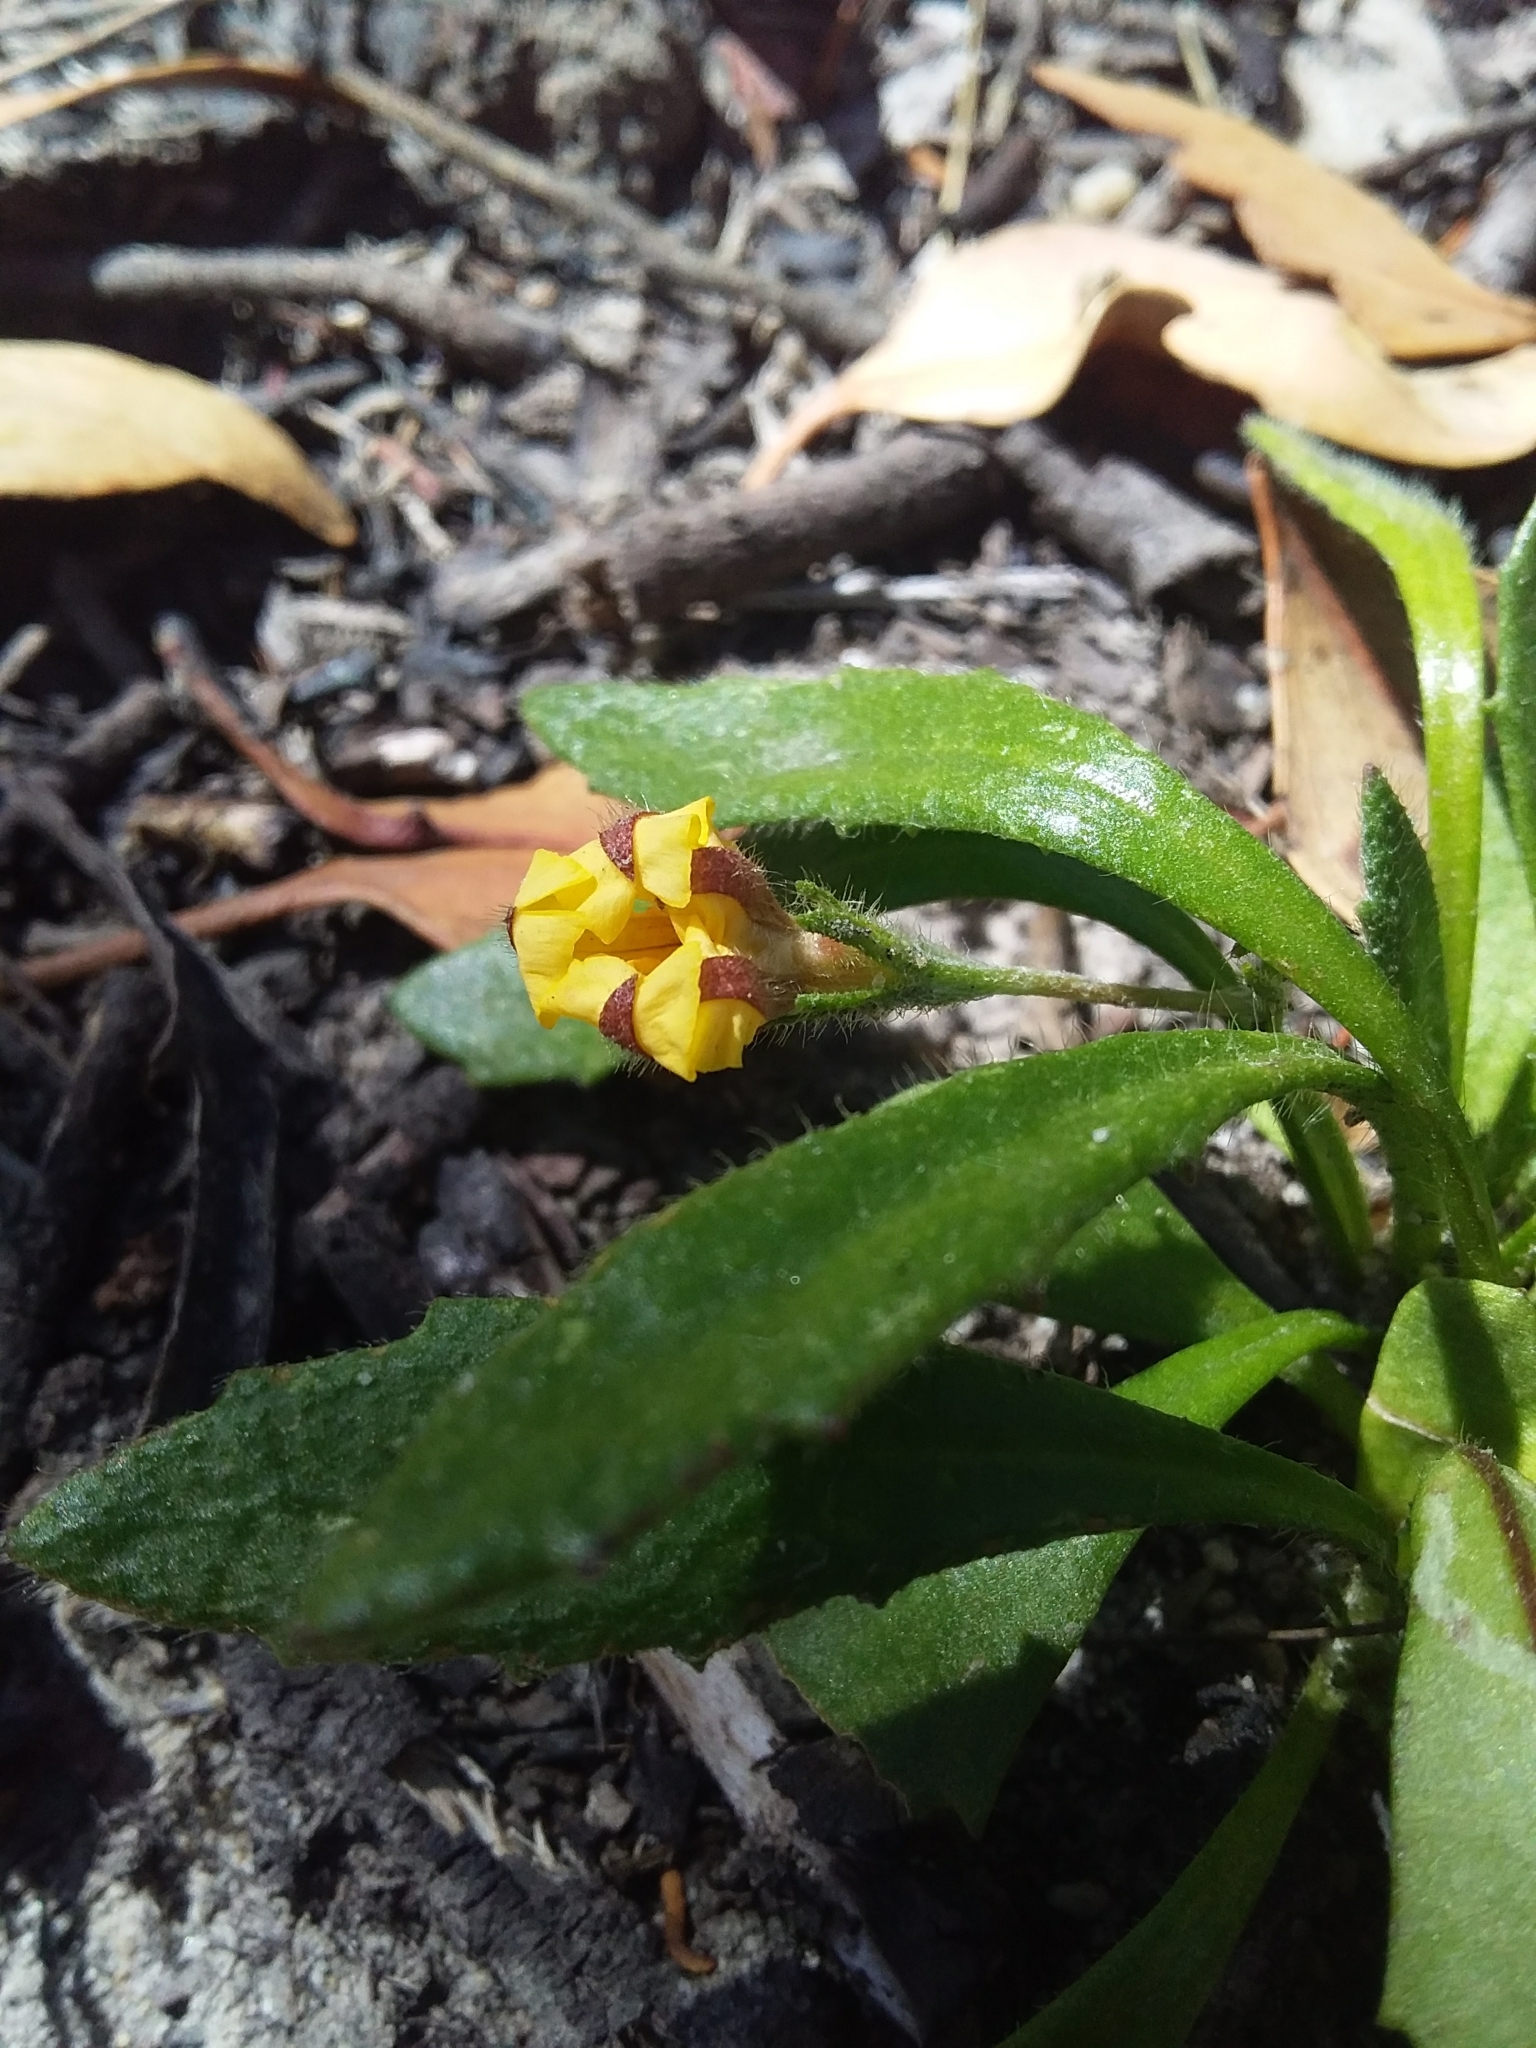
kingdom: Plantae
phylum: Tracheophyta
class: Magnoliopsida
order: Asterales
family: Goodeniaceae
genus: Goodenia
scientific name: Goodenia geniculata
